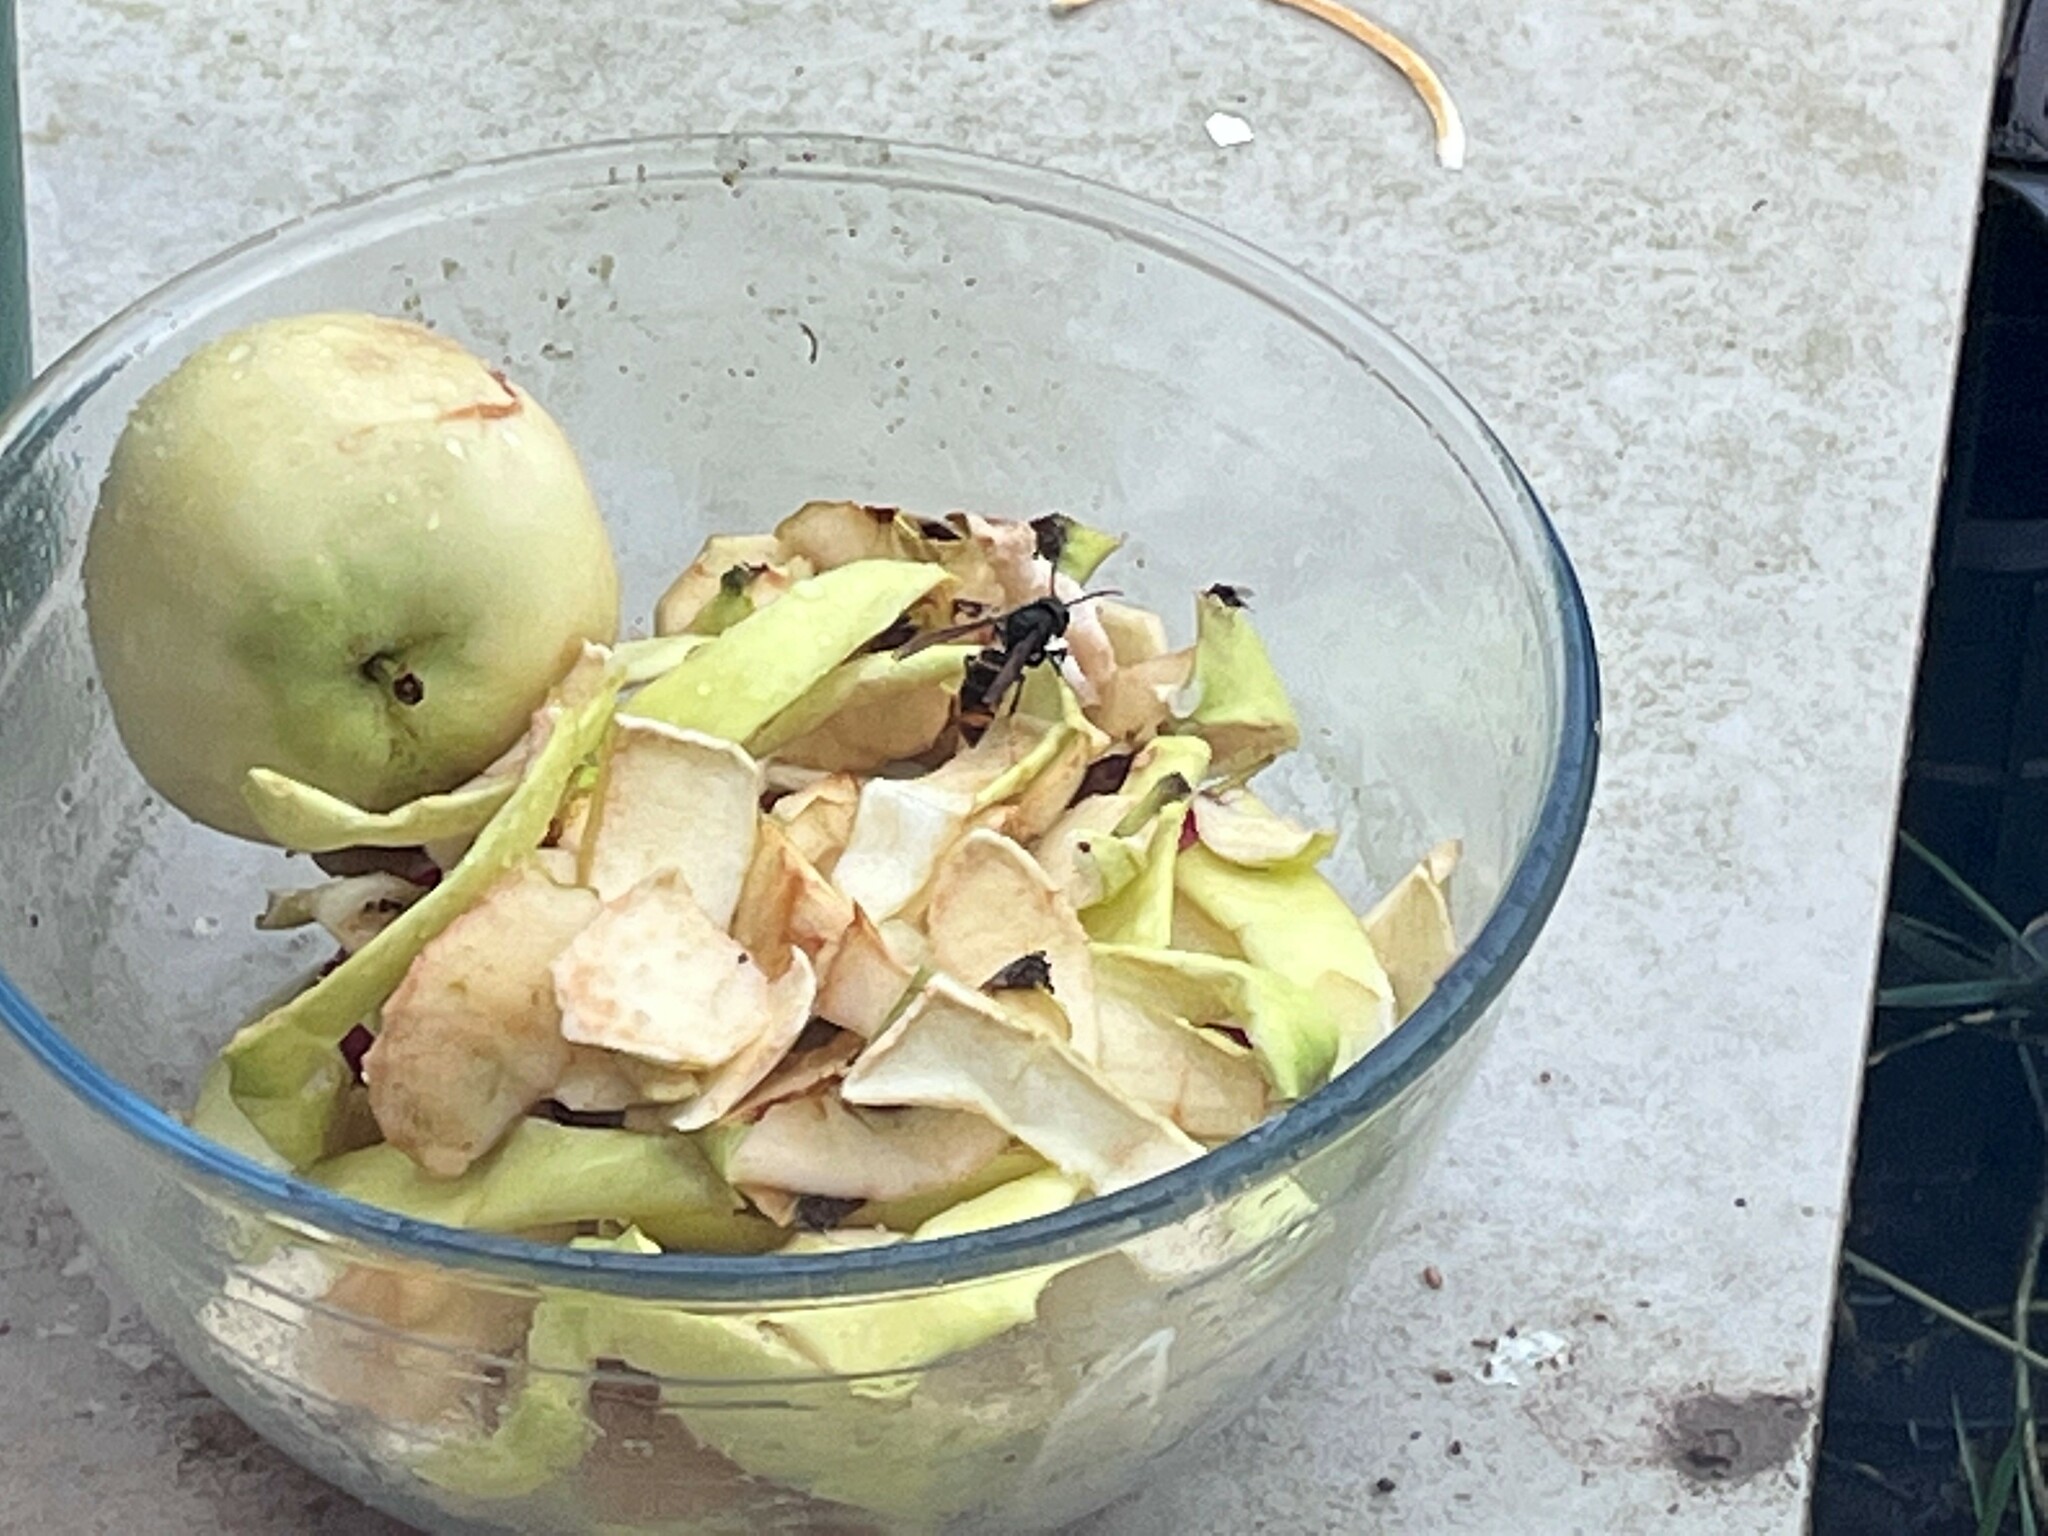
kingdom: Animalia
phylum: Arthropoda
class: Insecta
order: Hymenoptera
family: Vespidae
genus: Vespa
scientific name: Vespa velutina
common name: Asian hornet
